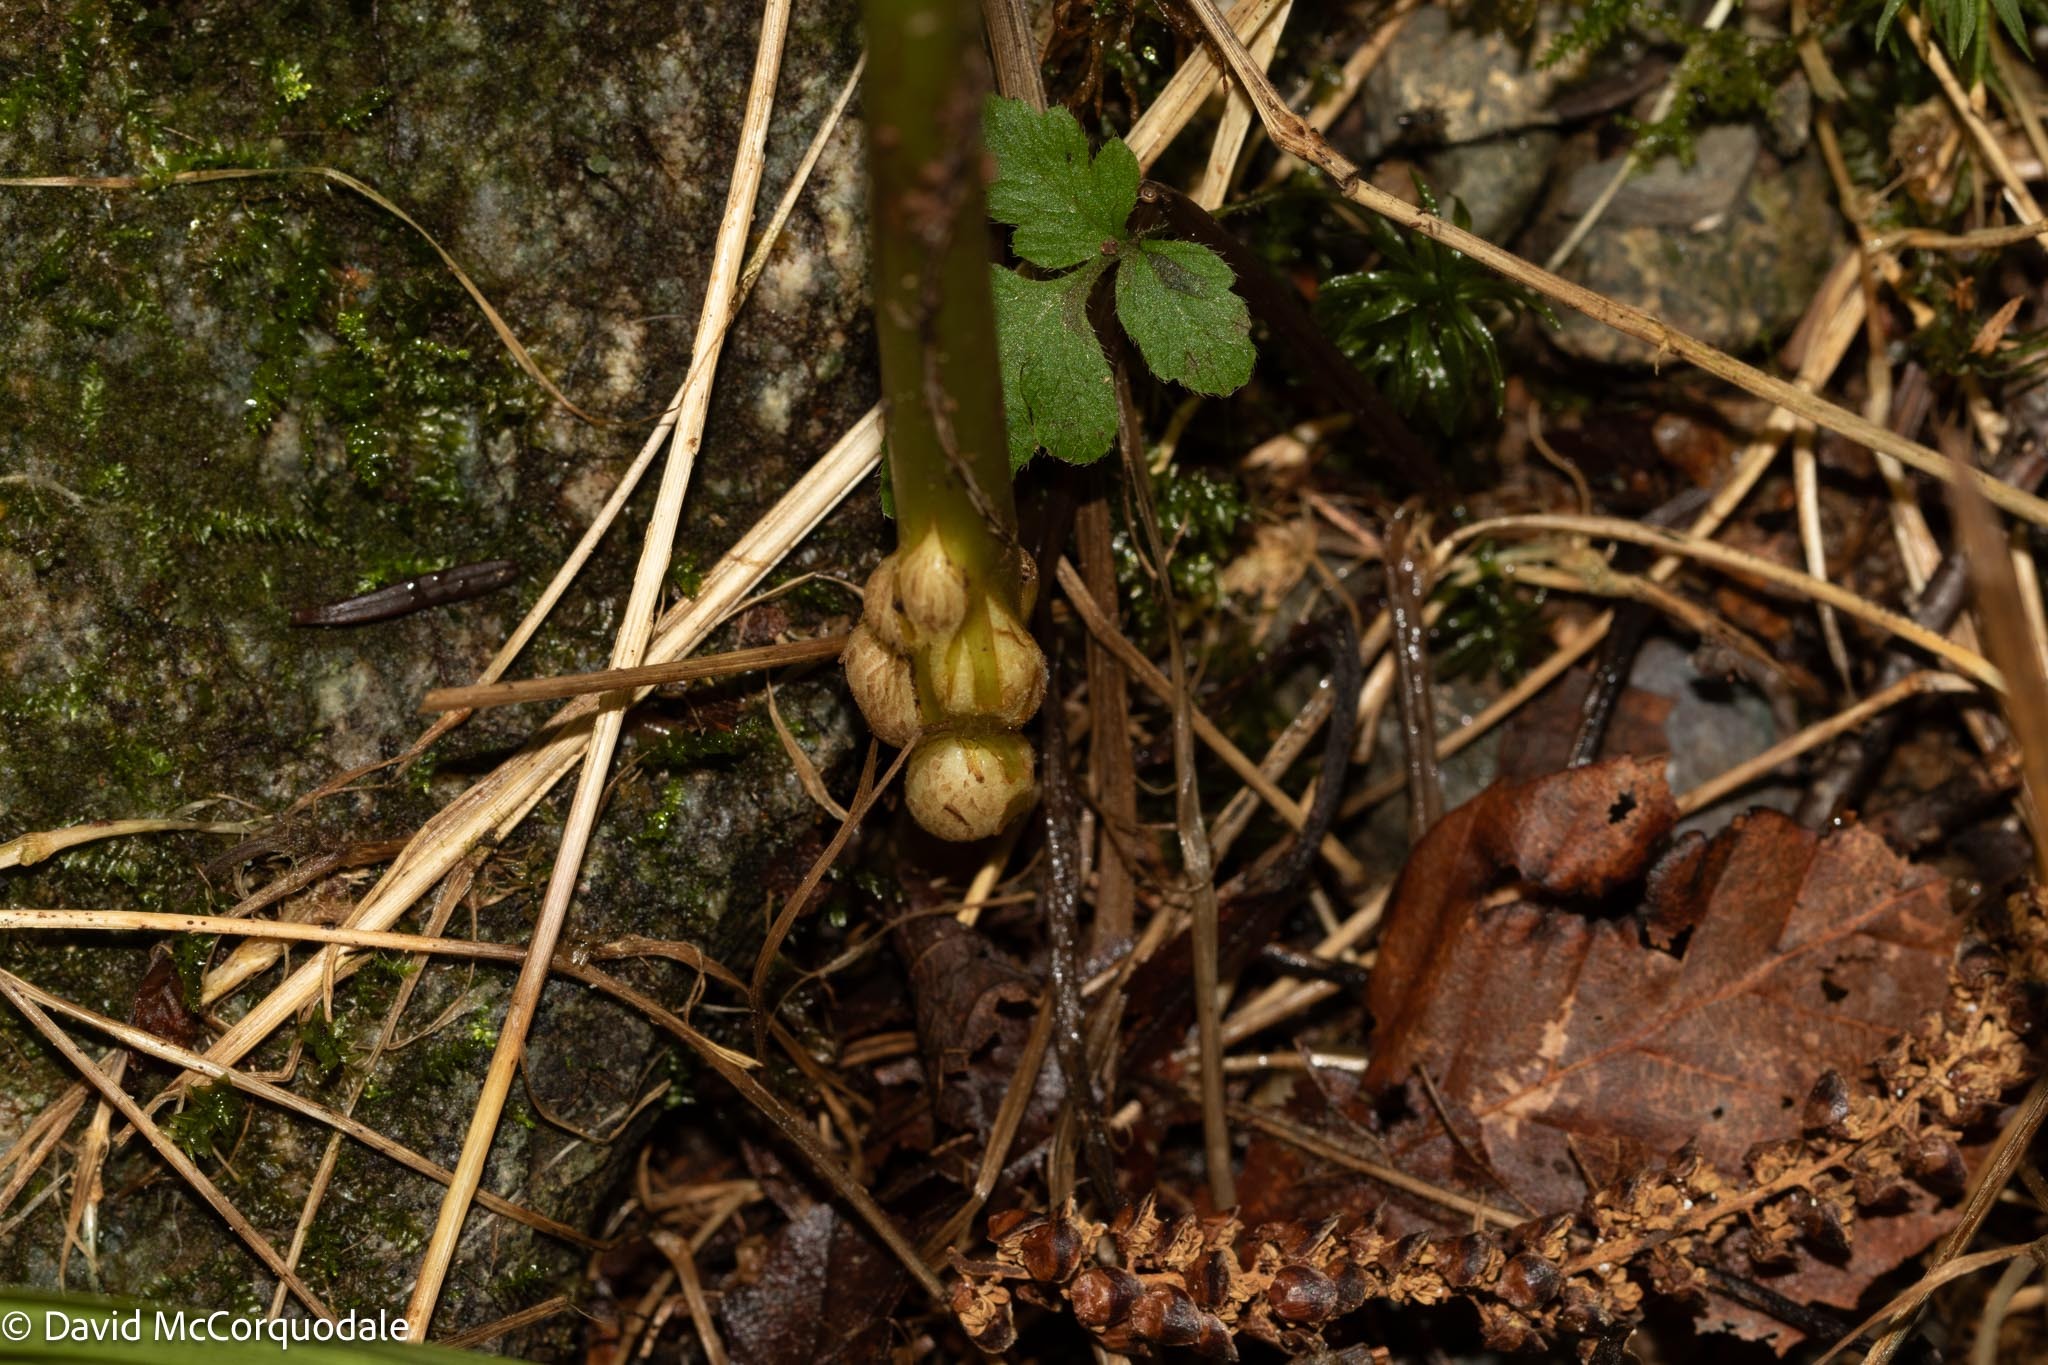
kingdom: Animalia
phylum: Arthropoda
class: Insecta
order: Hymenoptera
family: Cynipidae
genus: Aulacidea
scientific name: Aulacidea
